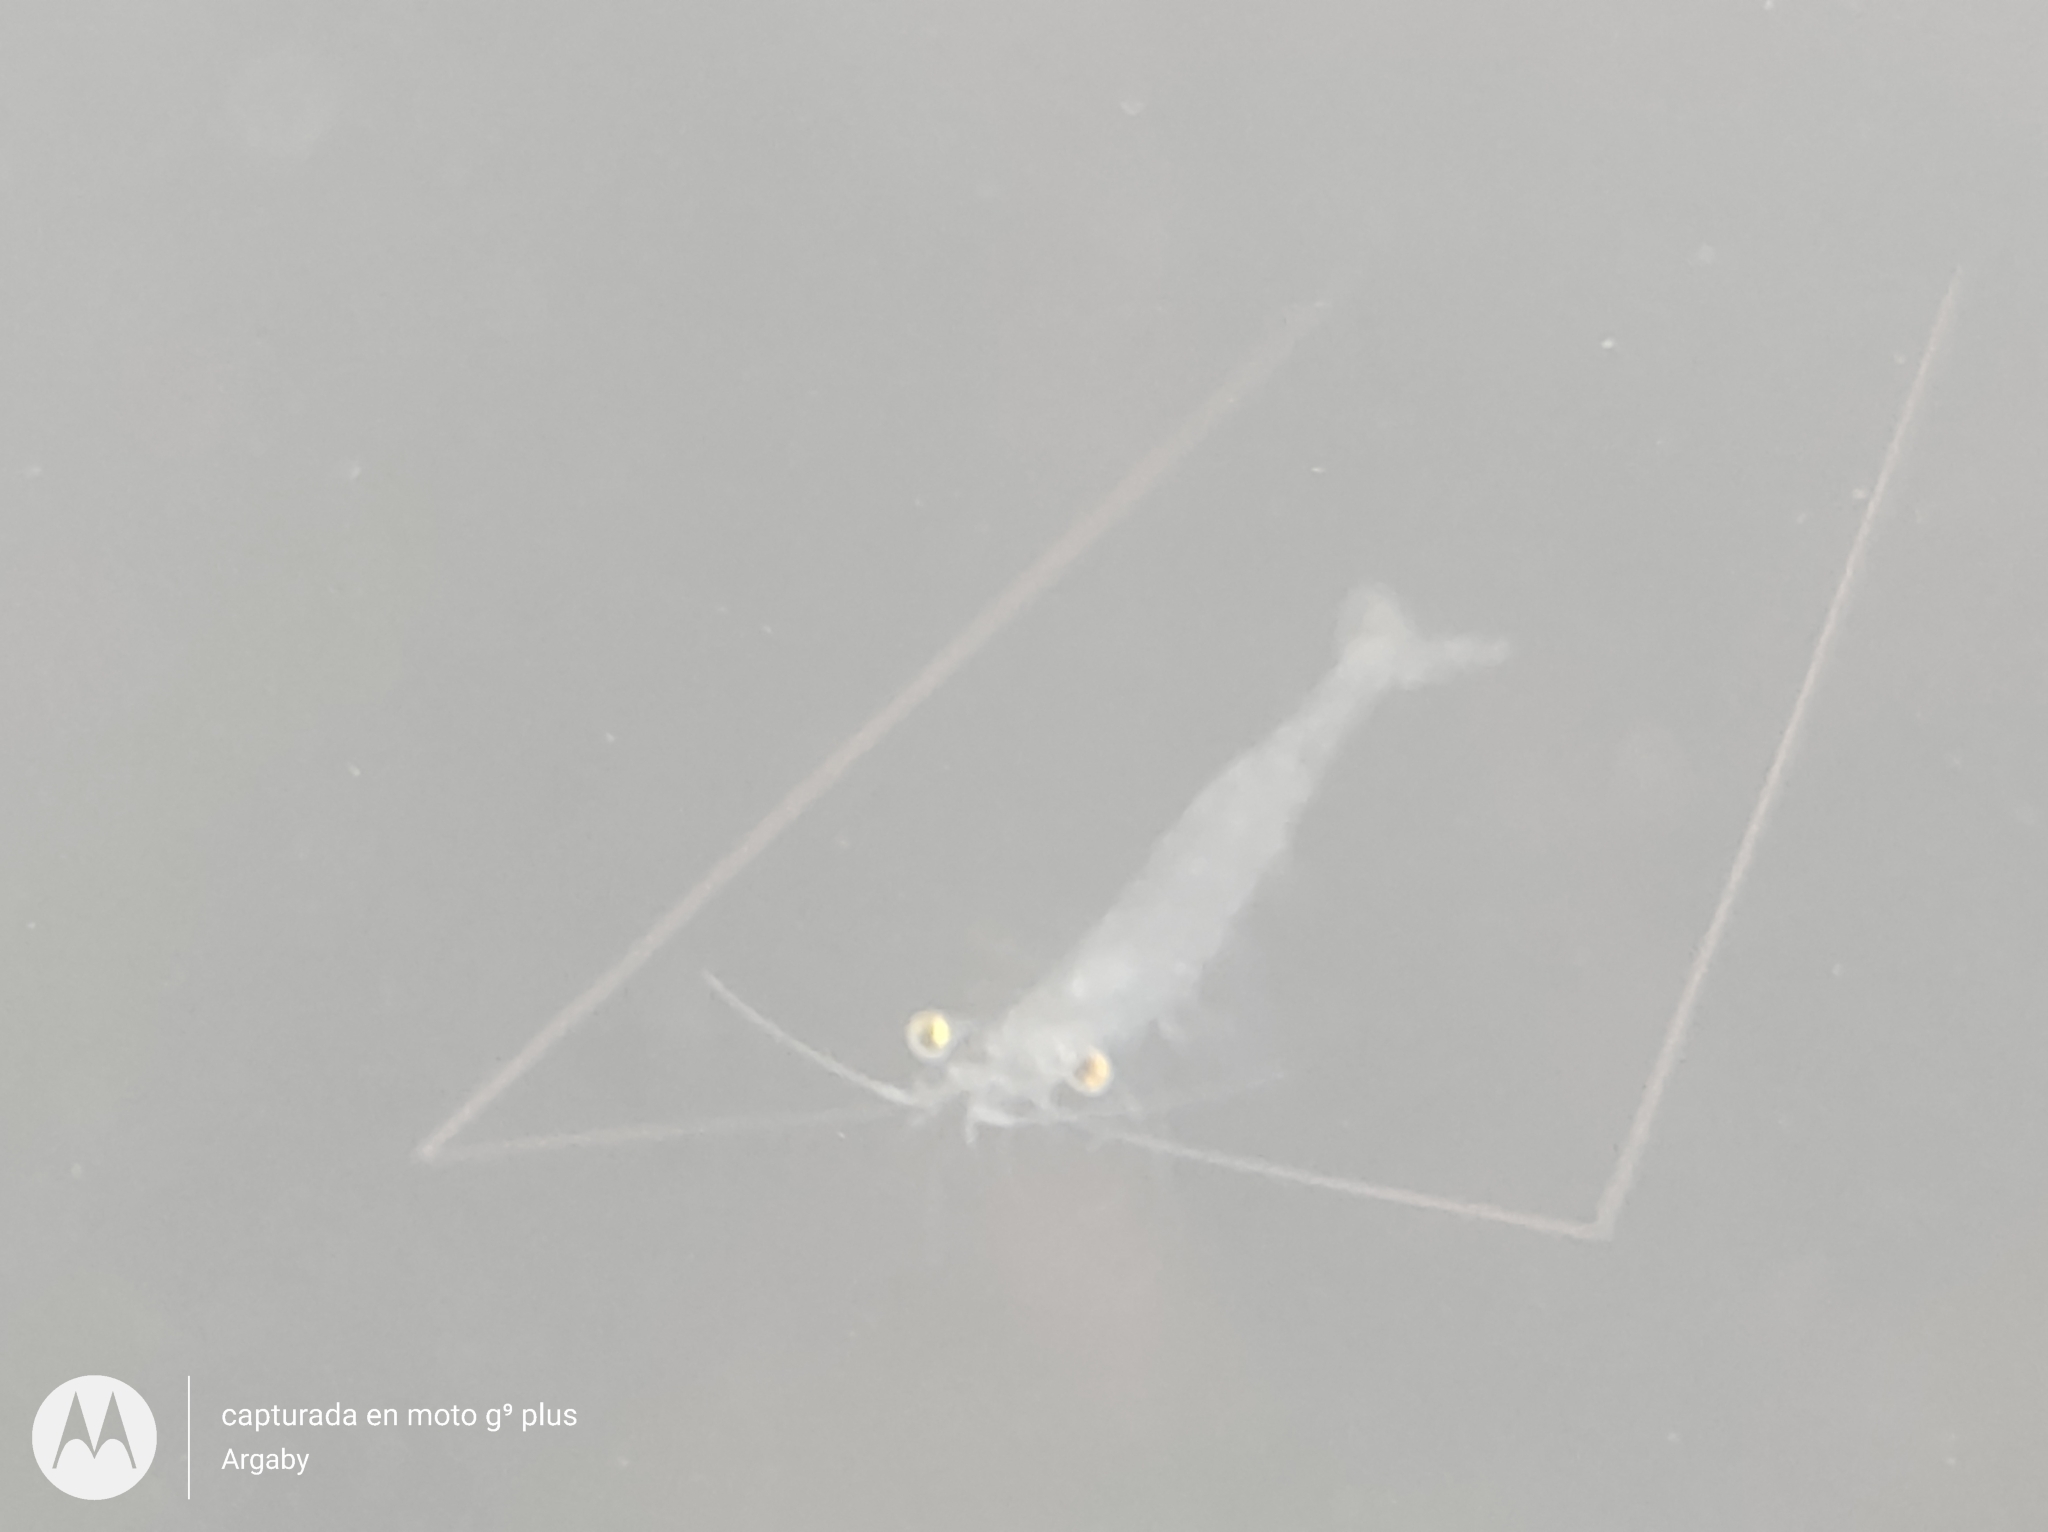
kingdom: Animalia
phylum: Arthropoda
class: Malacostraca
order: Decapoda
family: Acetidae
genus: Acetes
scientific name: Acetes paraguayensis
